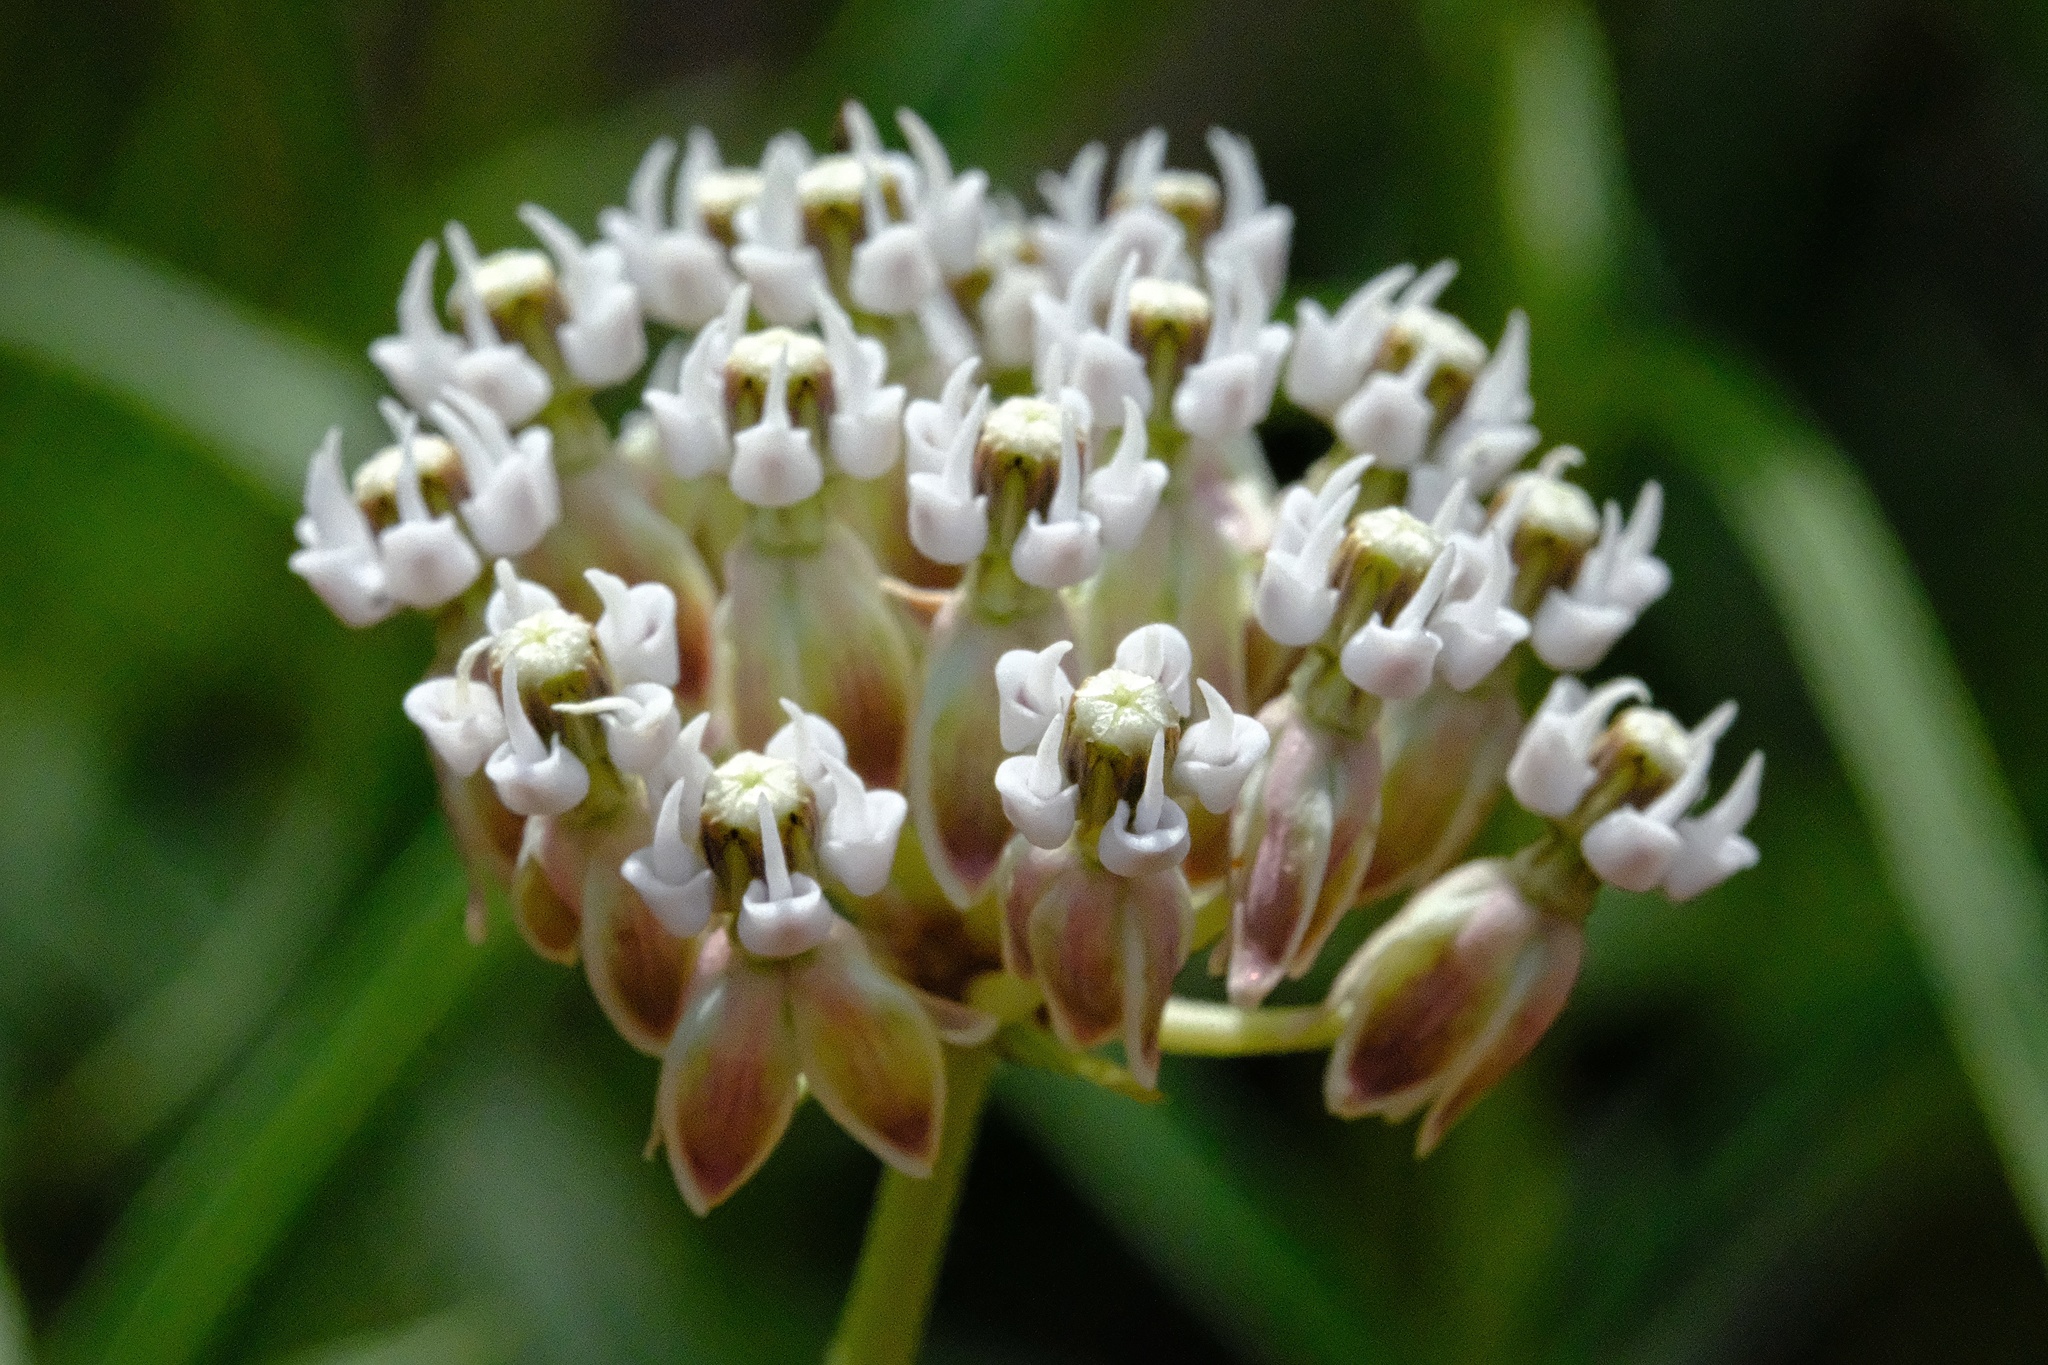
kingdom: Plantae
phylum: Tracheophyta
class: Magnoliopsida
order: Gentianales
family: Apocynaceae
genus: Asclepias
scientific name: Asclepias fascicularis
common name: Mexican milkweed
